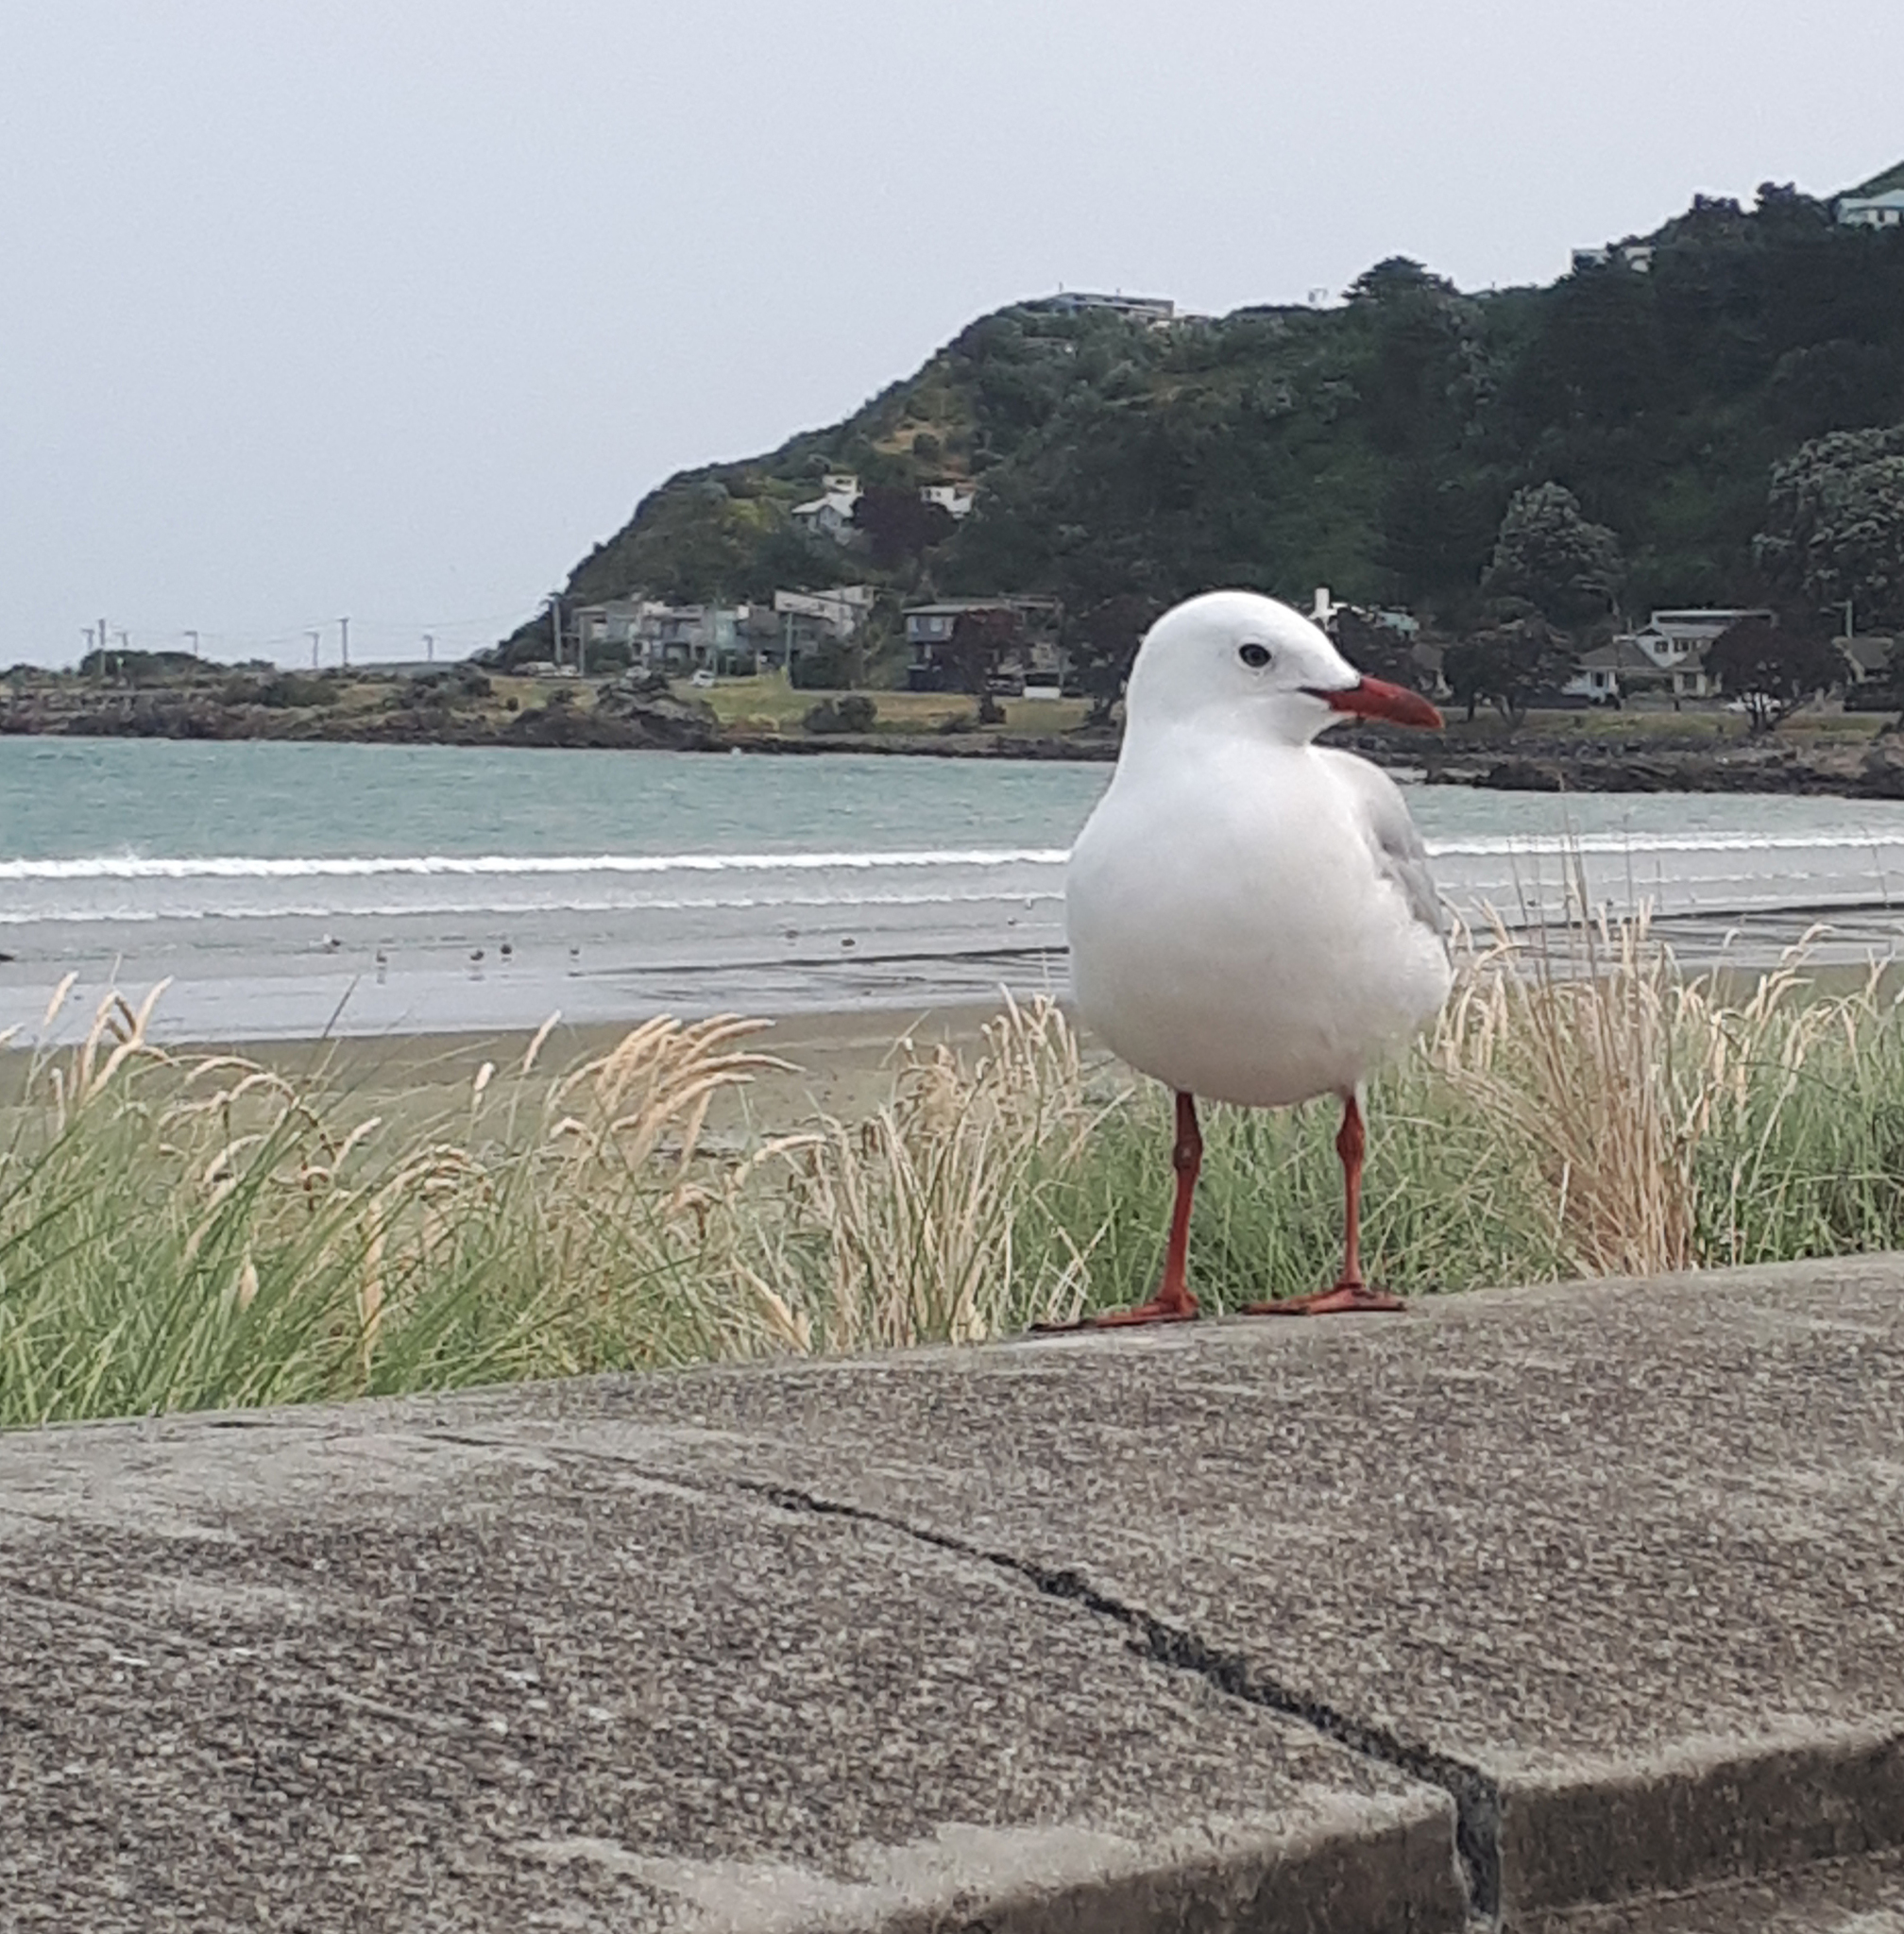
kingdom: Animalia
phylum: Chordata
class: Aves
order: Charadriiformes
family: Laridae
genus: Chroicocephalus
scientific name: Chroicocephalus novaehollandiae
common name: Silver gull
